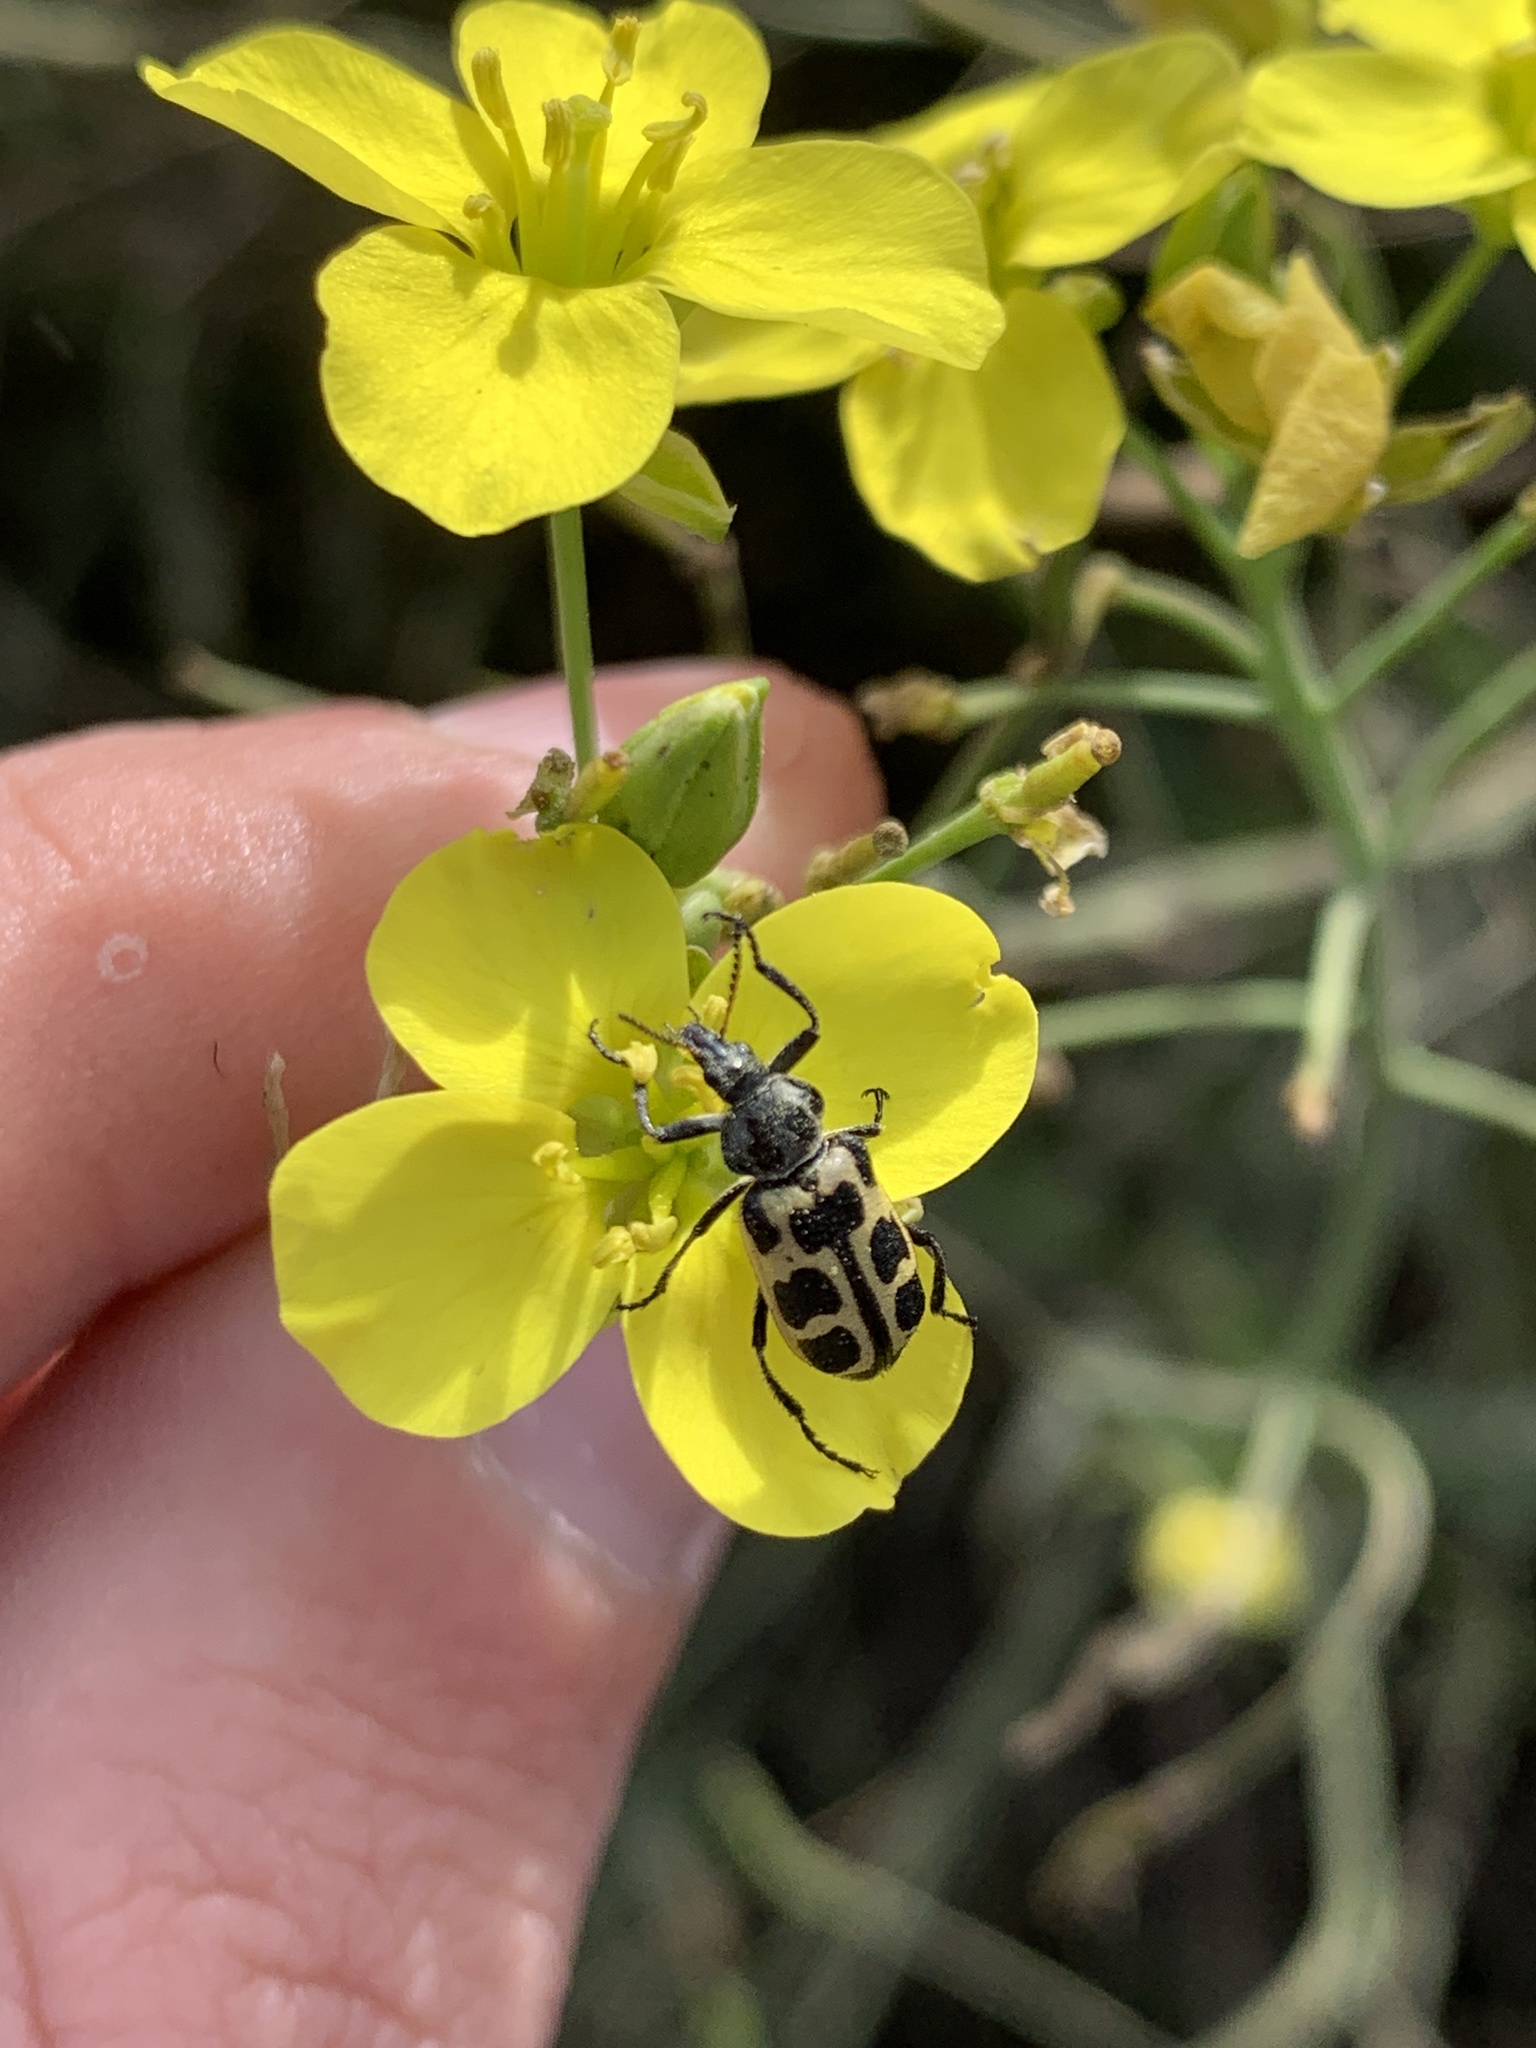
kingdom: Animalia
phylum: Arthropoda
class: Insecta
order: Coleoptera
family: Melyridae
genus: Astylus
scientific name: Astylus atromaculatus
